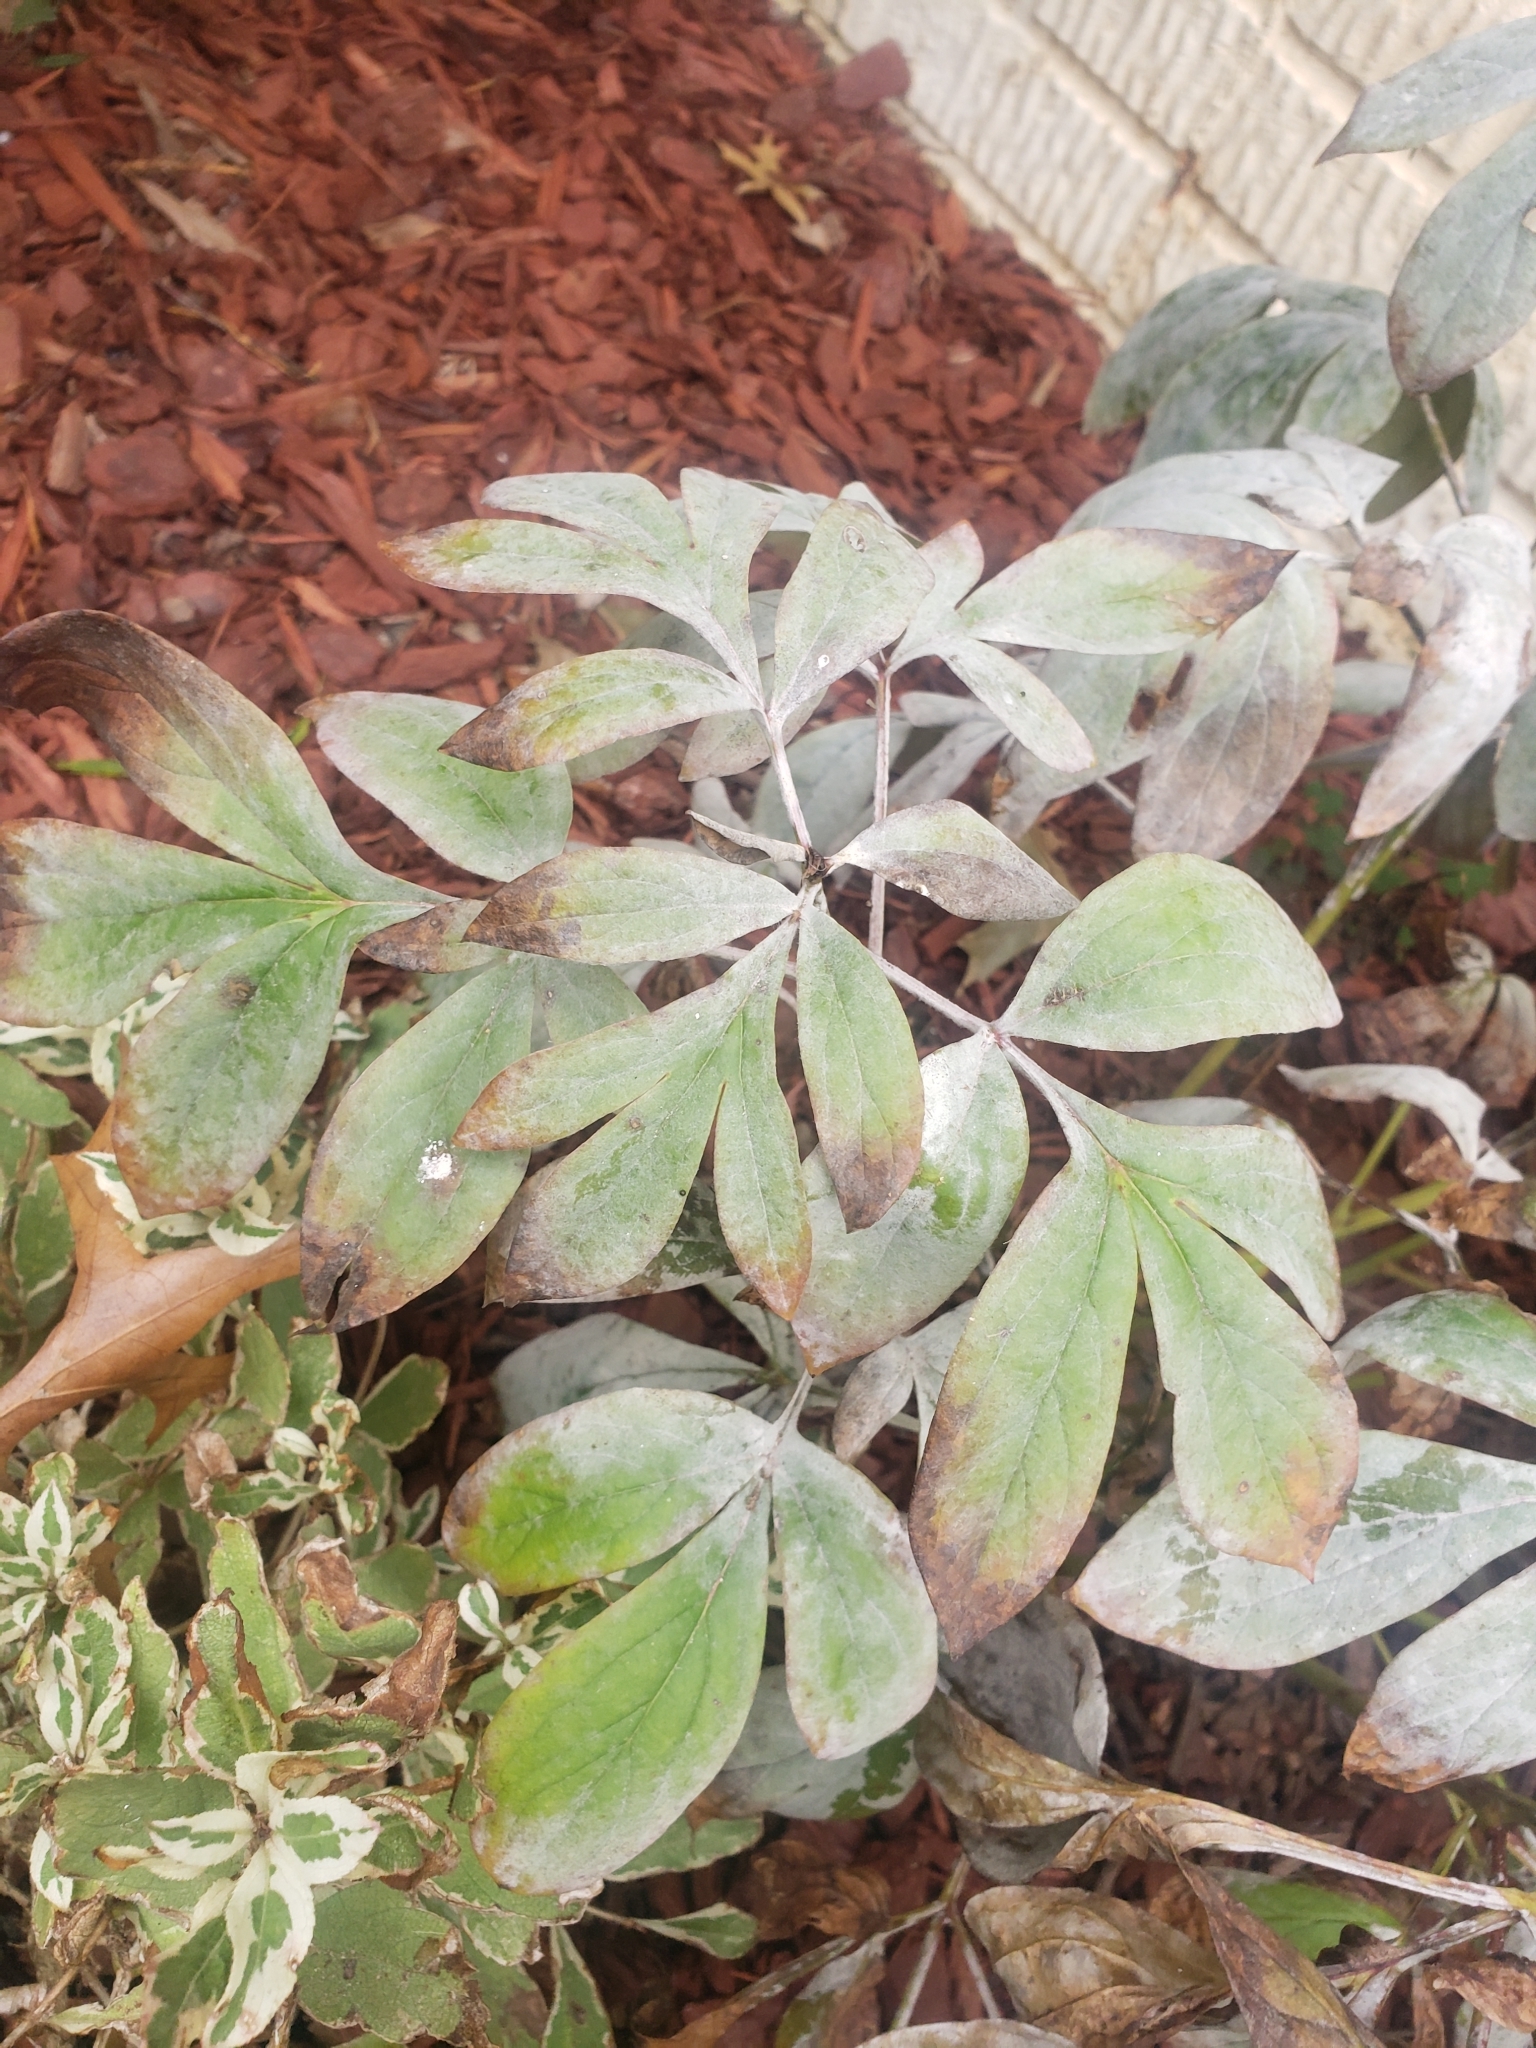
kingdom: Fungi
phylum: Ascomycota
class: Leotiomycetes
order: Helotiales
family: Erysiphaceae
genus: Erysiphe
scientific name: Erysiphe paeoniae
